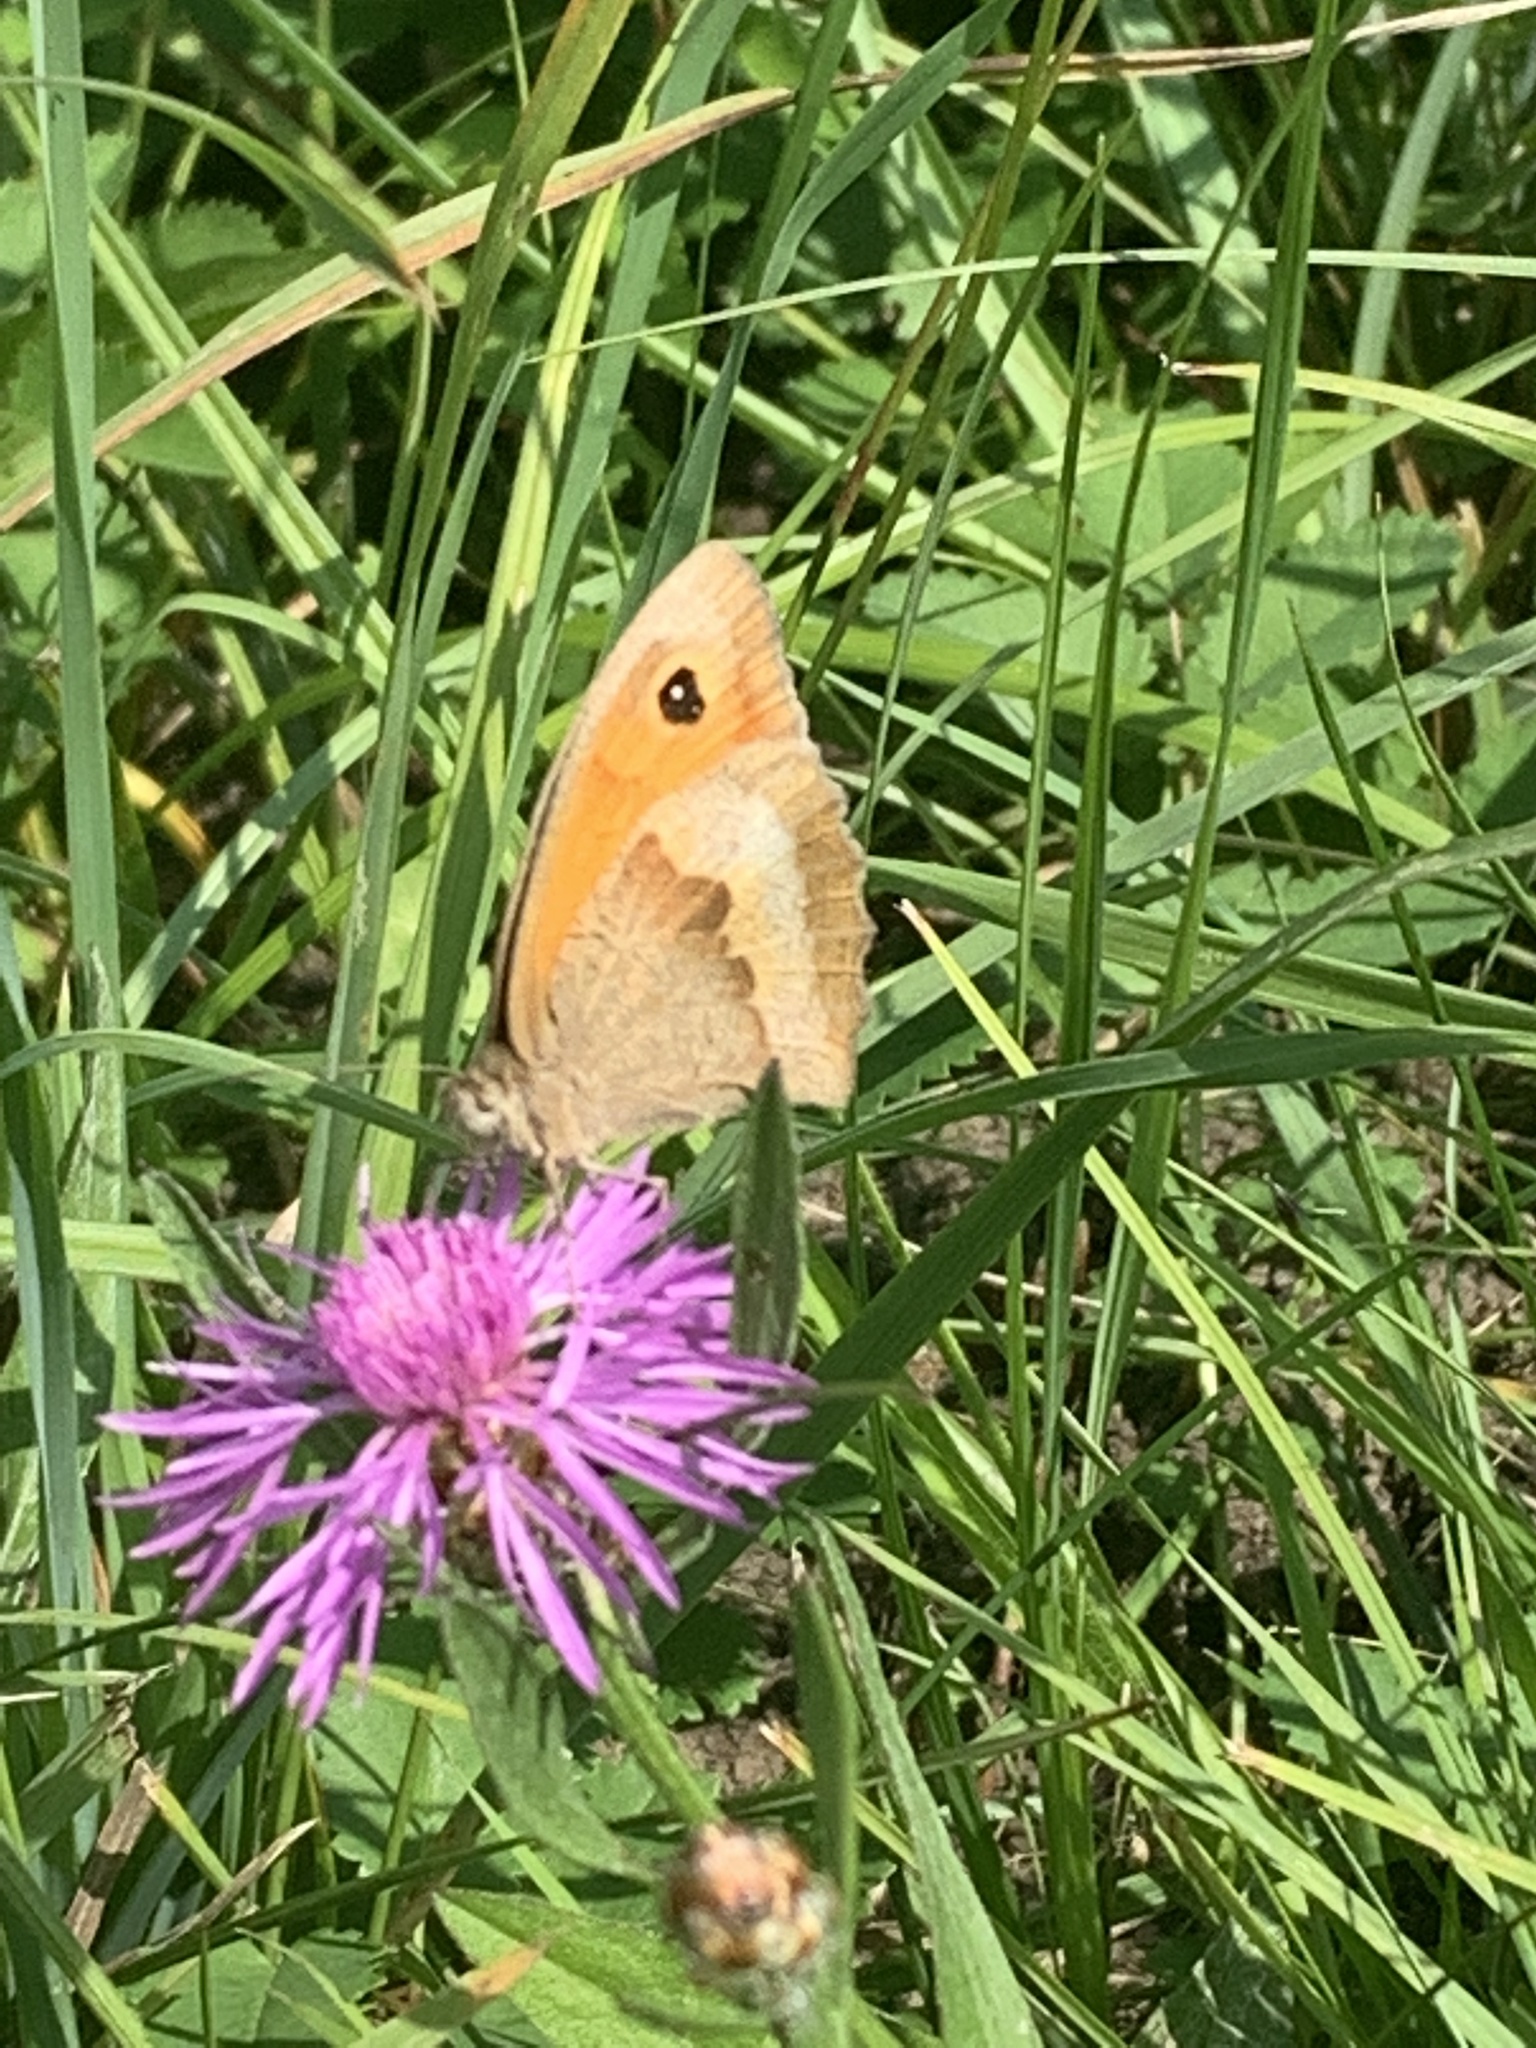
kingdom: Animalia
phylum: Arthropoda
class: Insecta
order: Lepidoptera
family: Nymphalidae
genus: Maniola
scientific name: Maniola jurtina
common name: Meadow brown
